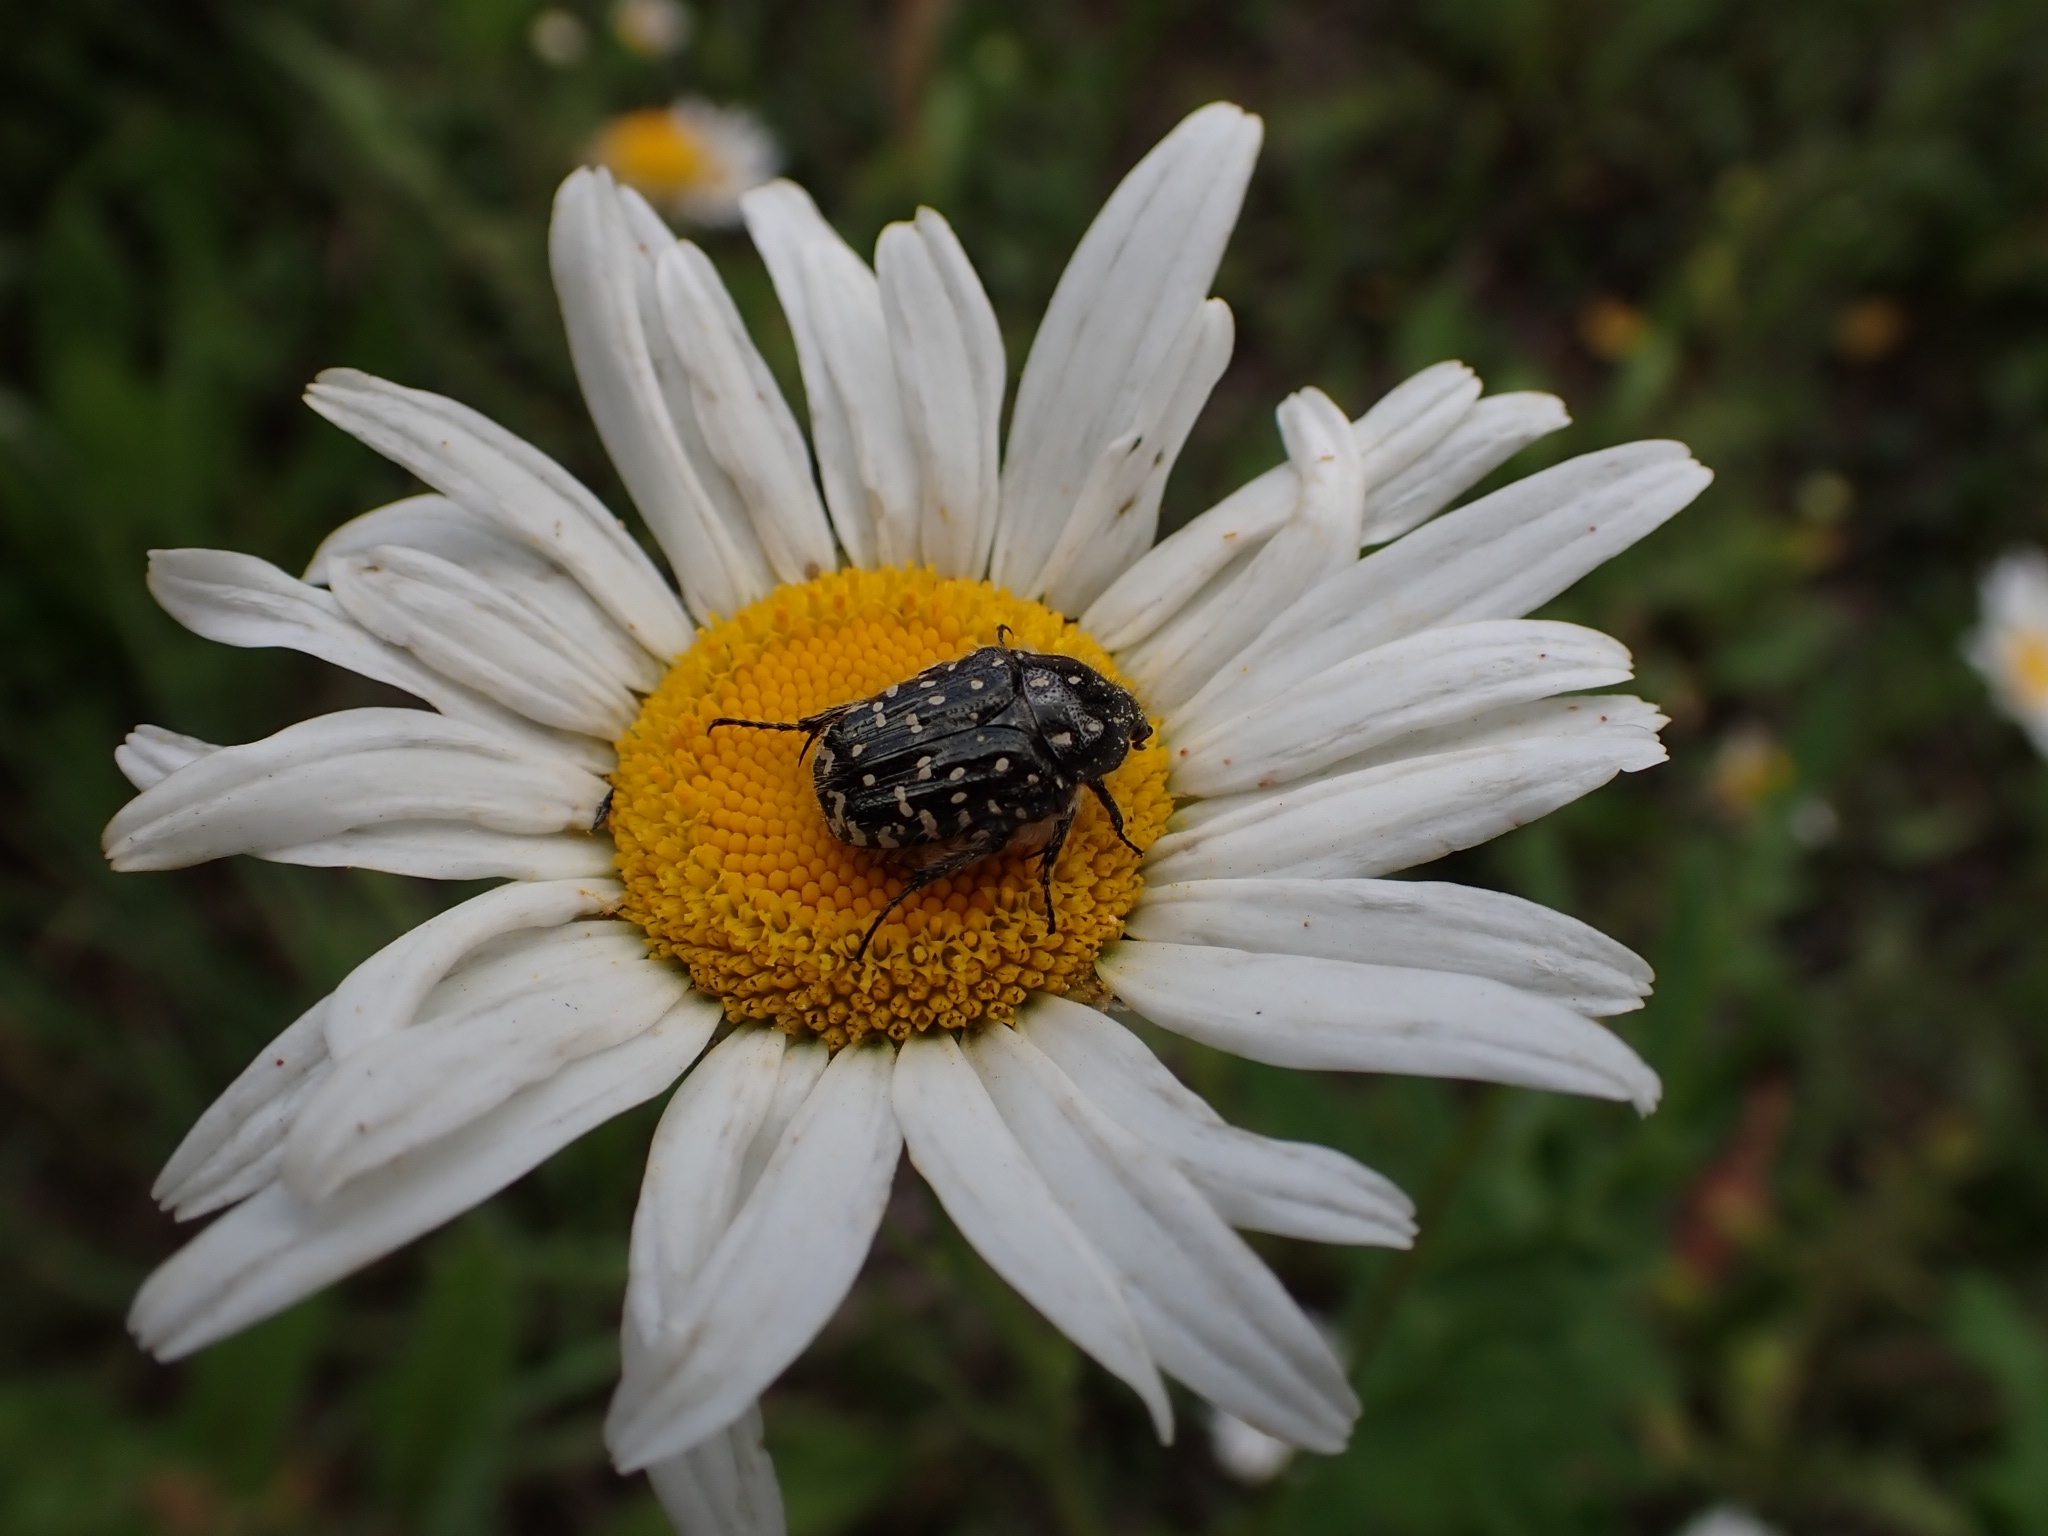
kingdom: Animalia
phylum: Arthropoda
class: Insecta
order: Coleoptera
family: Scarabaeidae
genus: Oxythyrea
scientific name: Oxythyrea funesta
